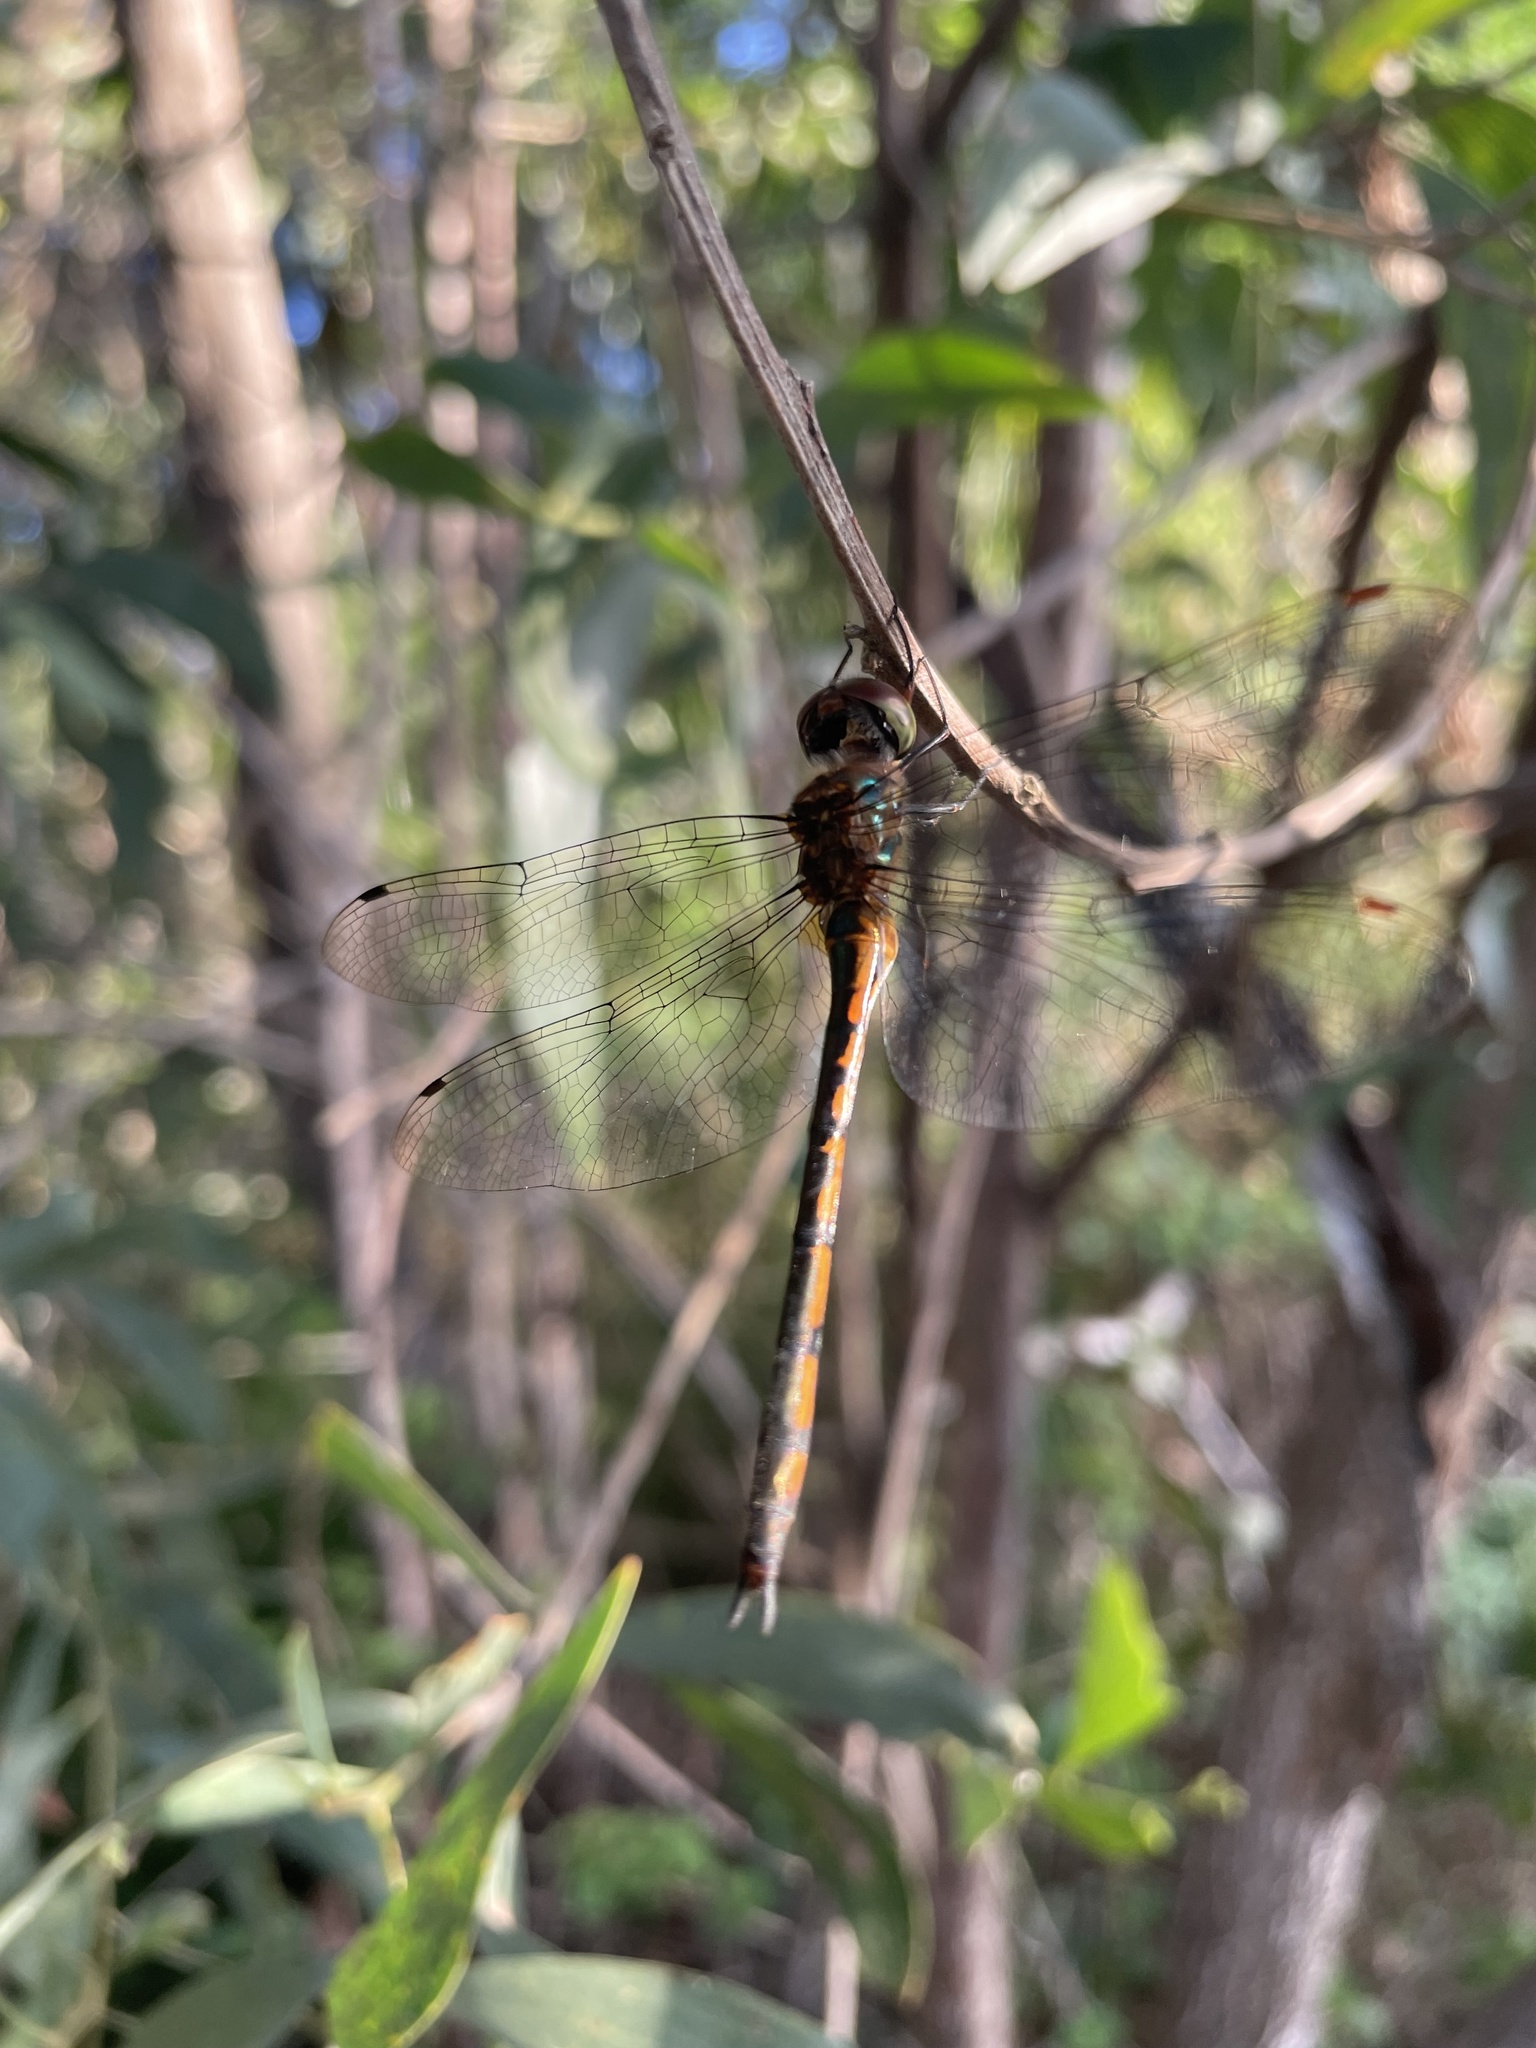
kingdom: Animalia
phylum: Arthropoda
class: Insecta
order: Odonata
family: Corduliidae
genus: Hemicordulia
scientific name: Hemicordulia continentalis
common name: Fat-bellied emerald
